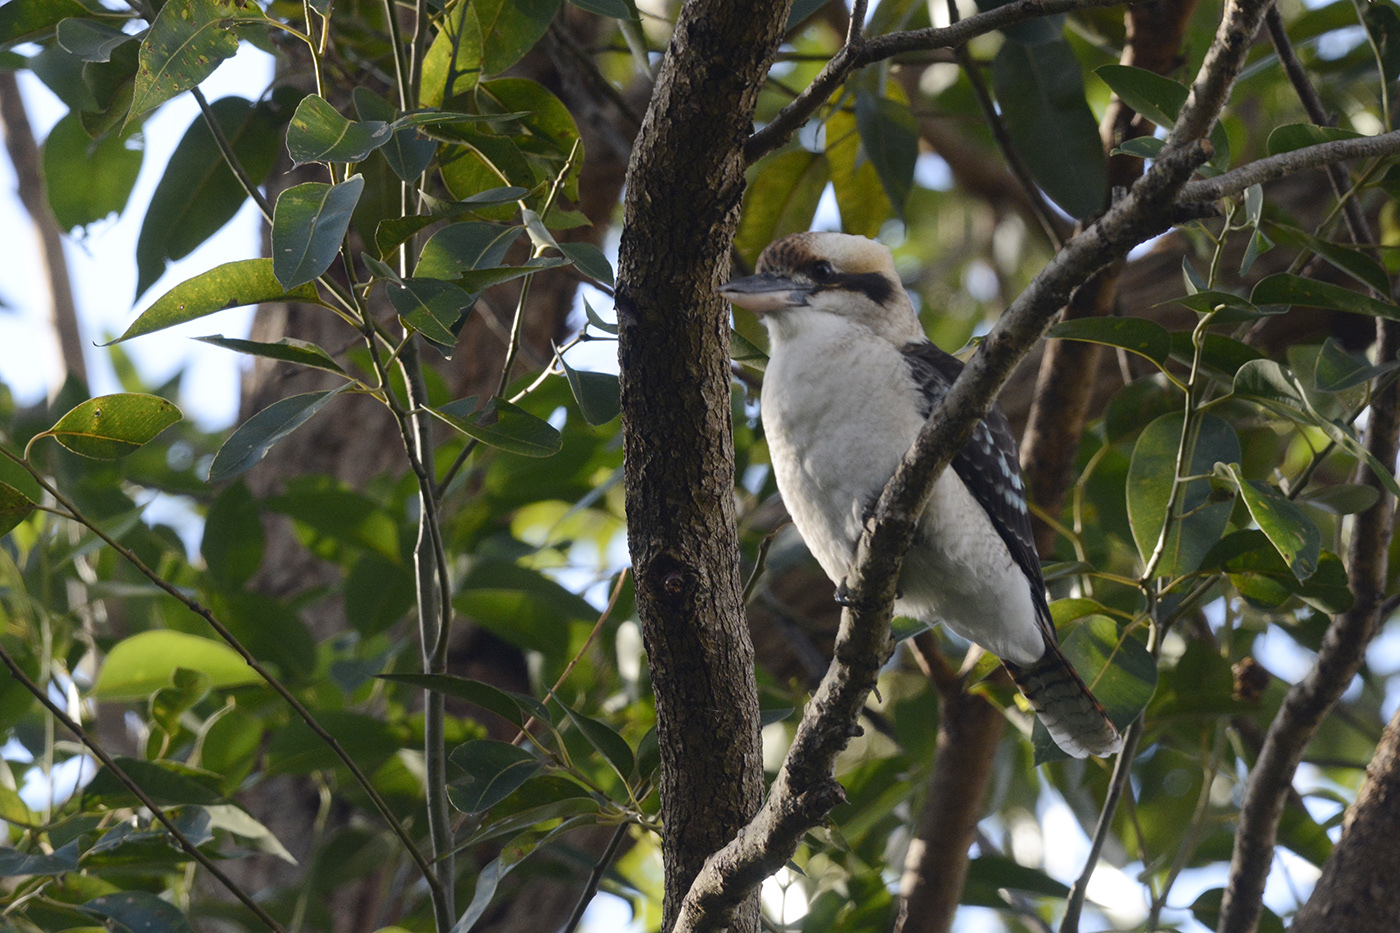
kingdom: Animalia
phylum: Chordata
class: Aves
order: Coraciiformes
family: Alcedinidae
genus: Dacelo
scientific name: Dacelo novaeguineae
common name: Laughing kookaburra
